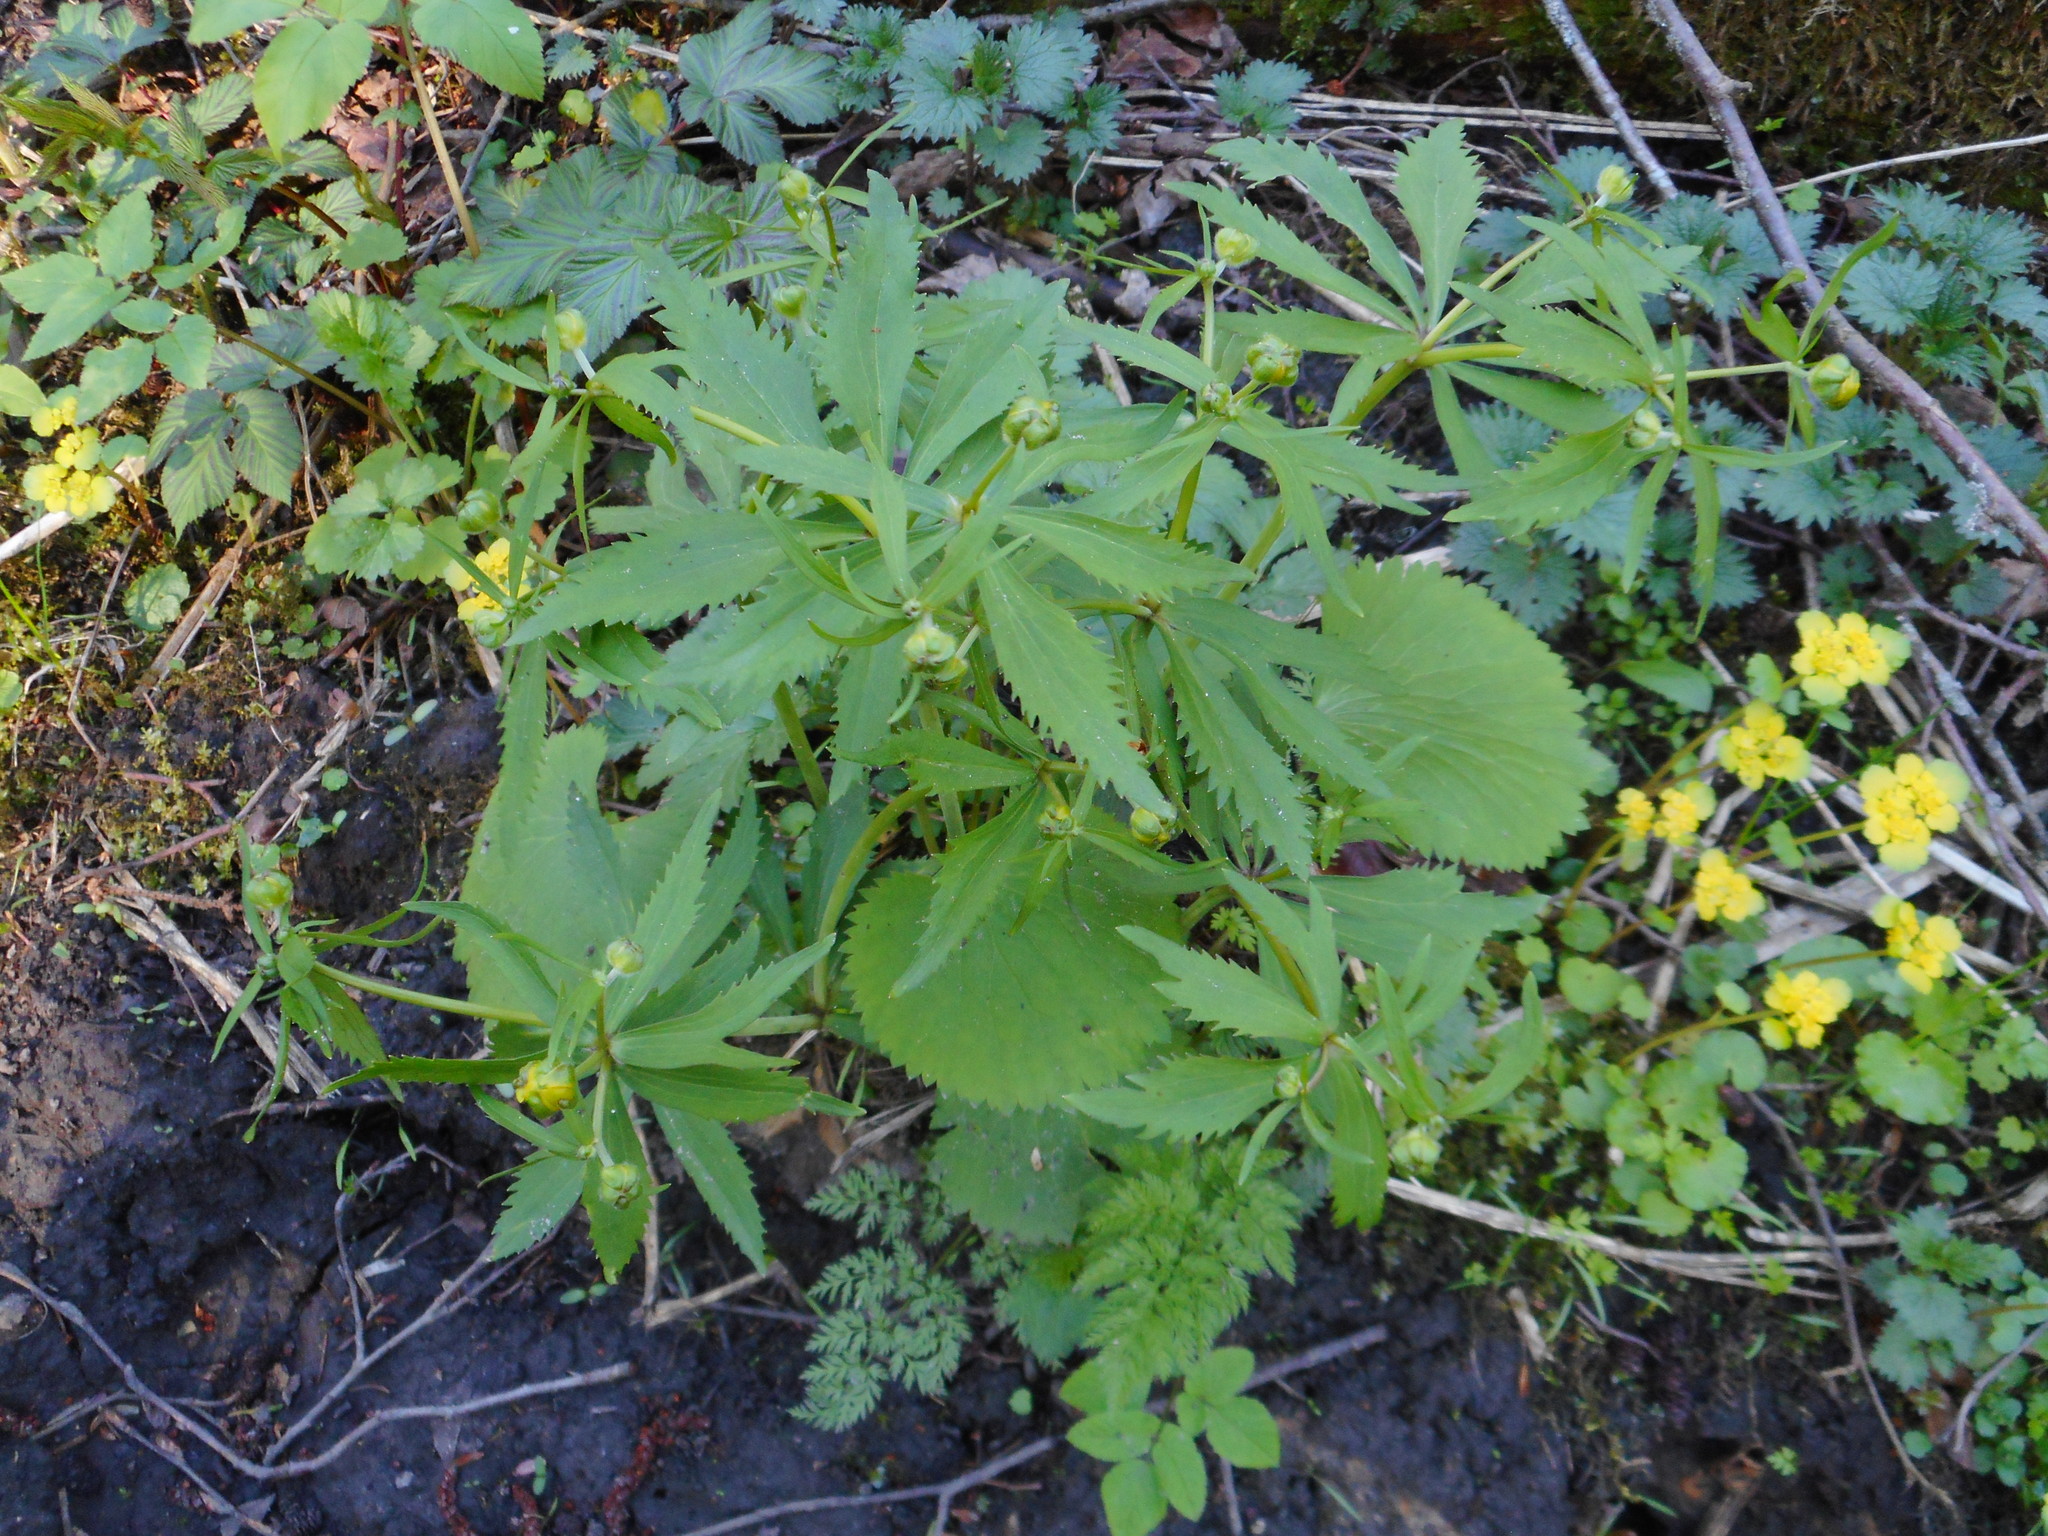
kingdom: Plantae
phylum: Tracheophyta
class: Magnoliopsida
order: Ranunculales
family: Ranunculaceae
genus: Ranunculus
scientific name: Ranunculus cassubicus
